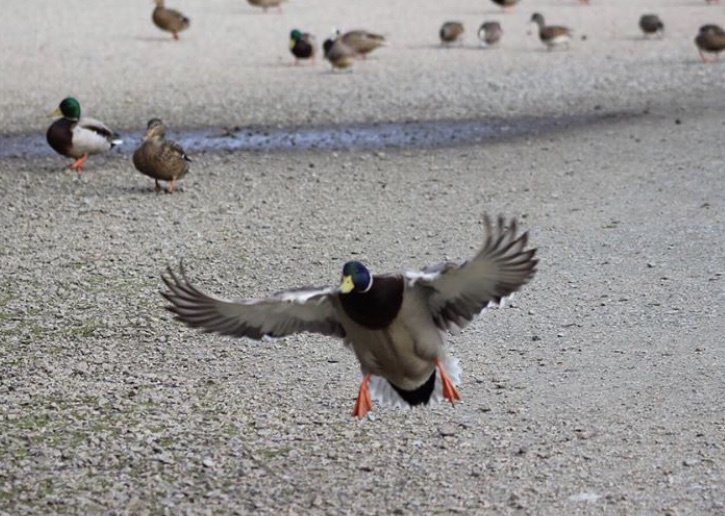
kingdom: Animalia
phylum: Chordata
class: Aves
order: Anseriformes
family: Anatidae
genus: Anas
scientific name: Anas platyrhynchos
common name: Mallard
